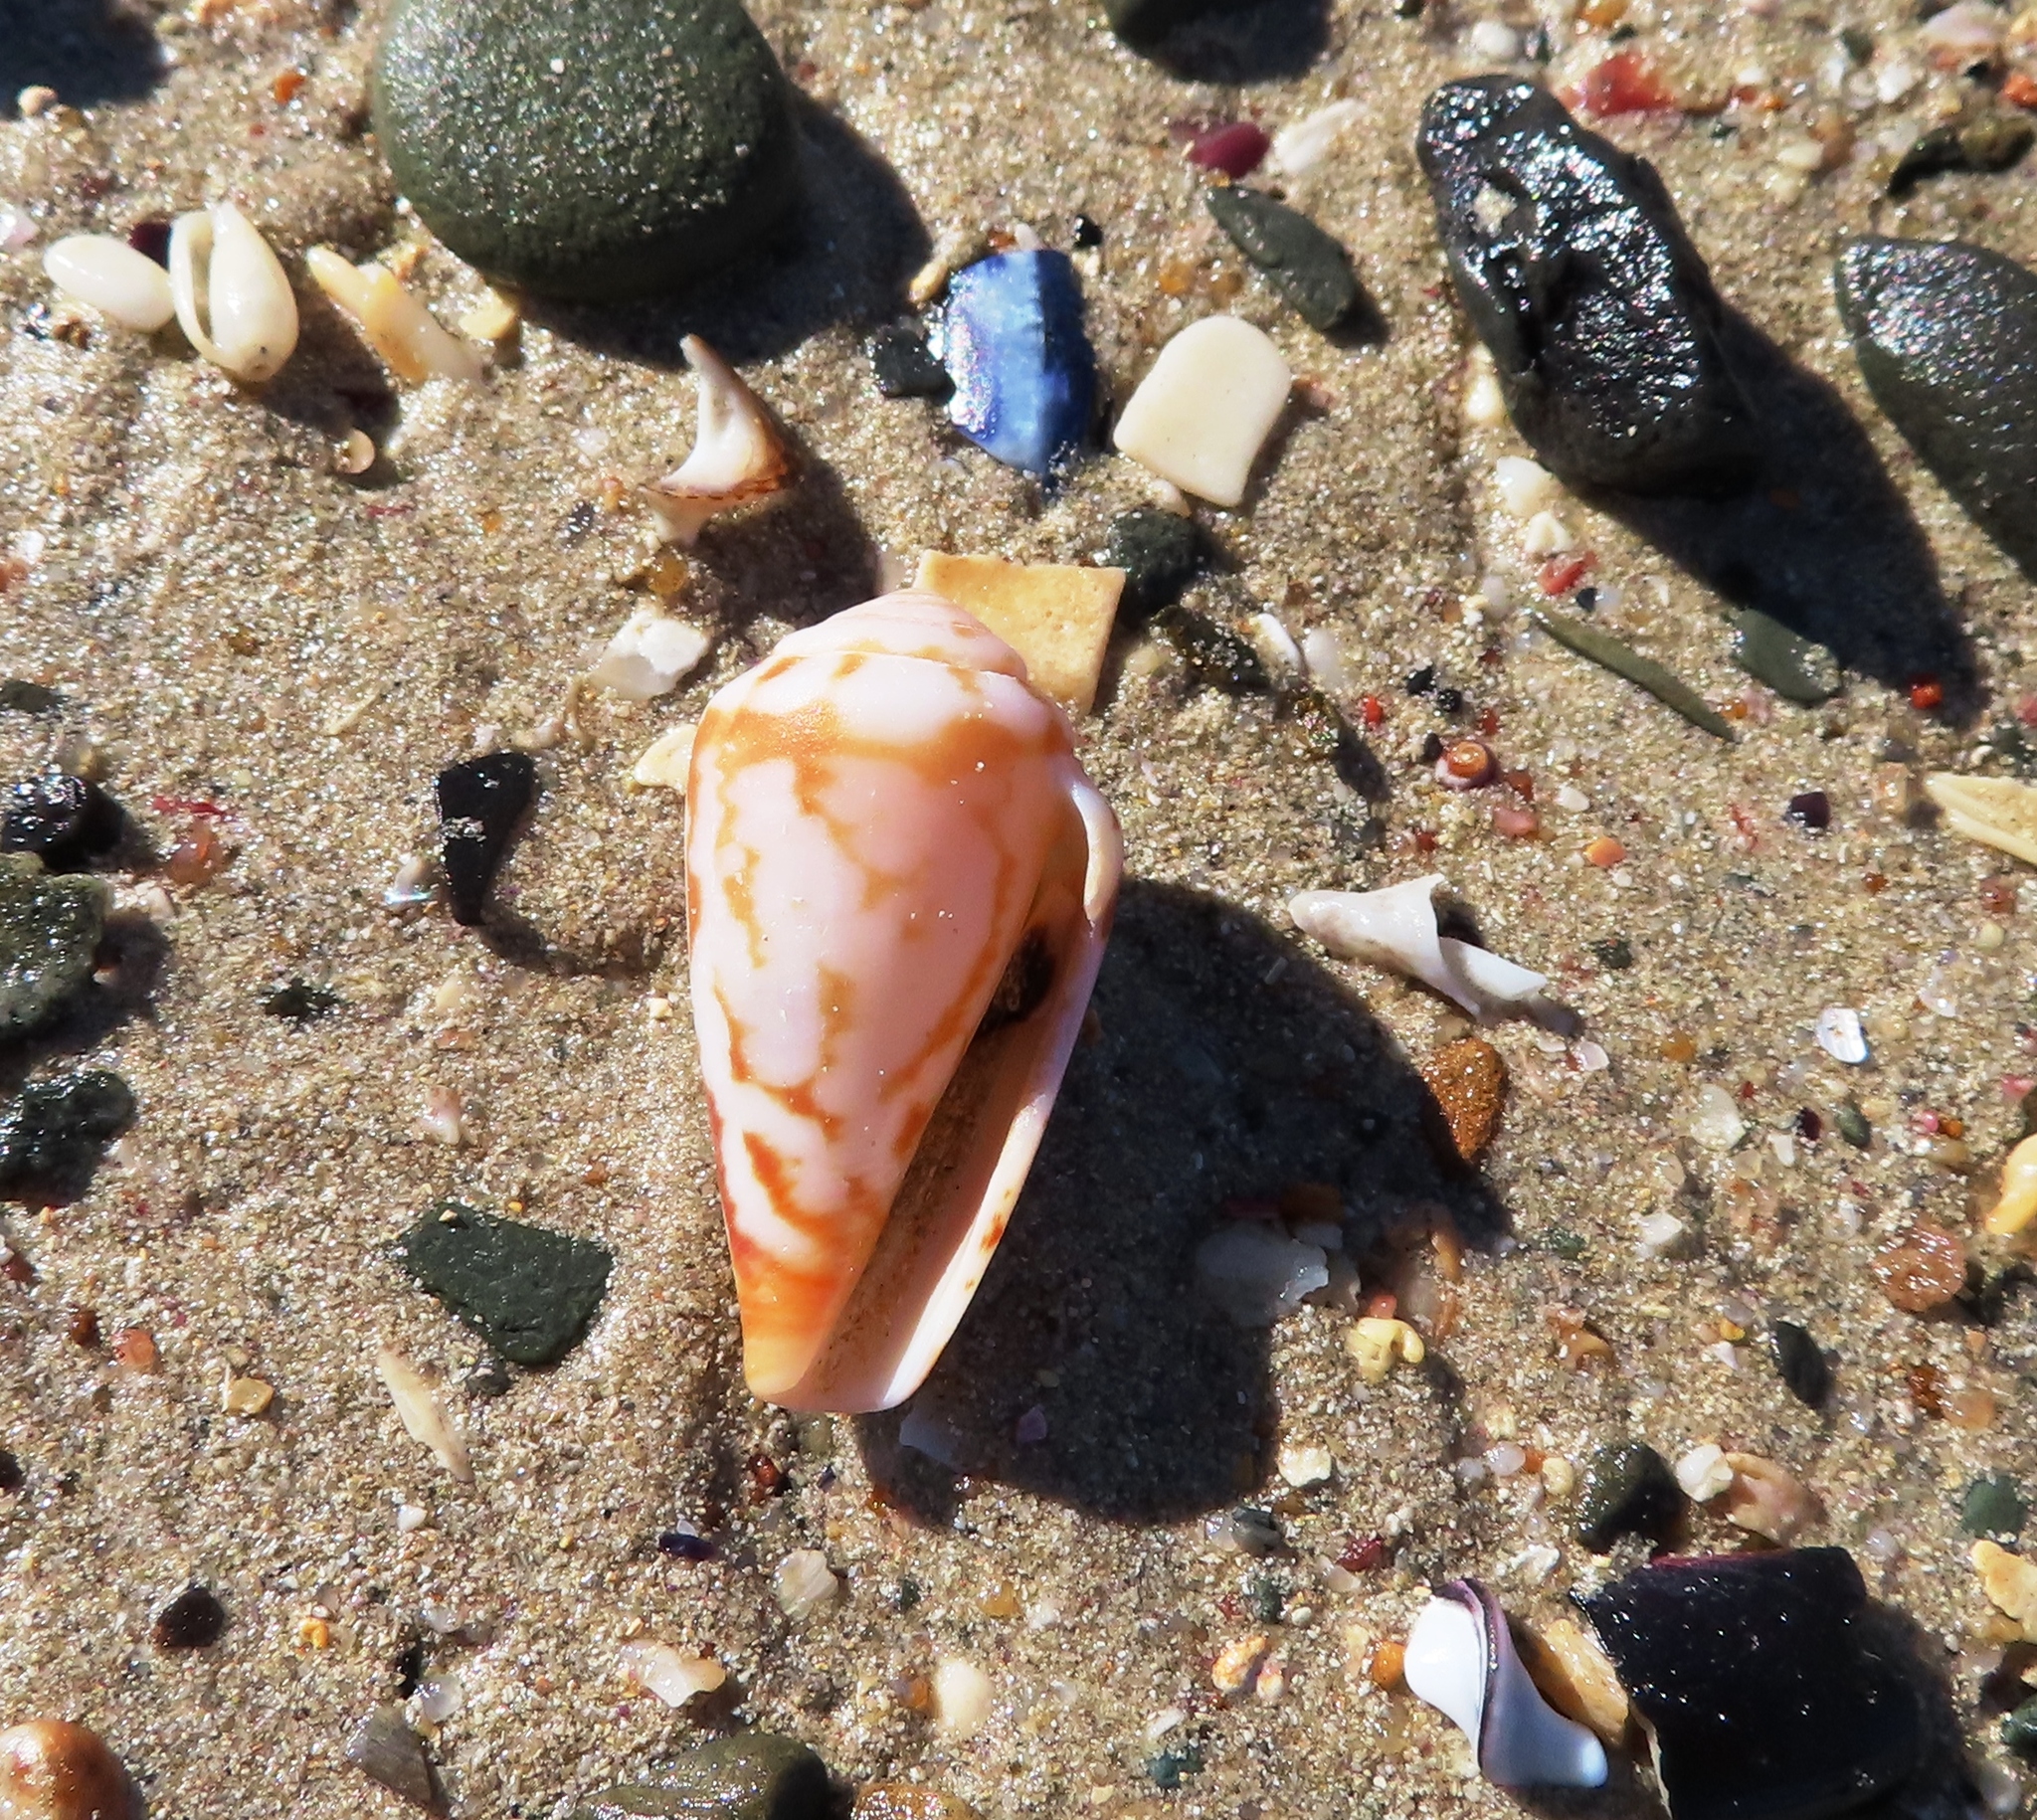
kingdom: Animalia
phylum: Mollusca
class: Gastropoda
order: Neogastropoda
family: Conidae
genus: Conus
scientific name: Conus algoensis
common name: Algoa cone
